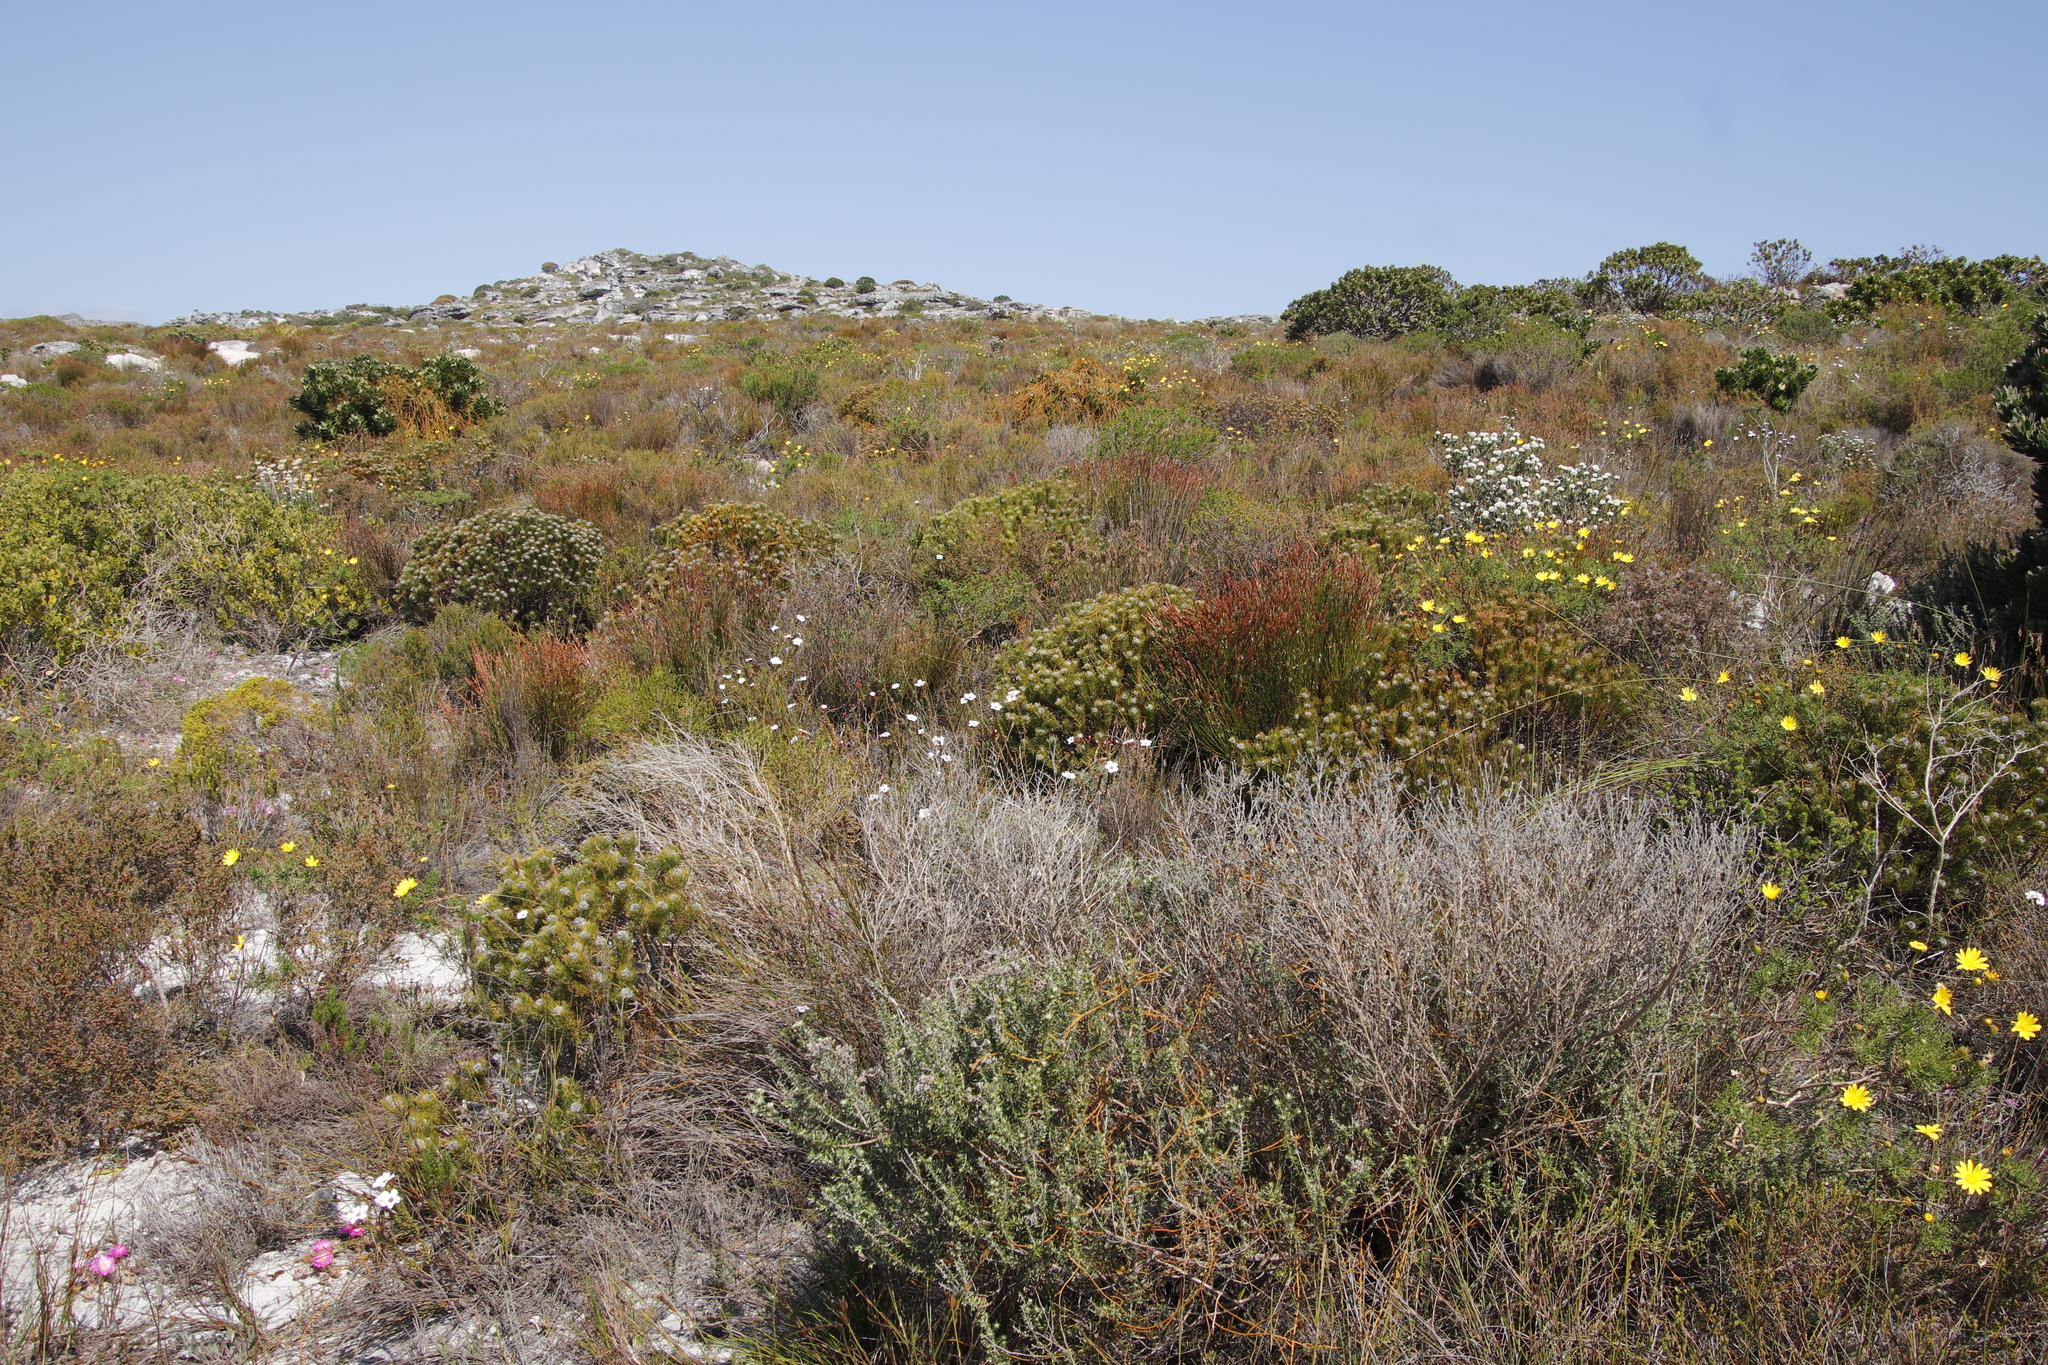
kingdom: Plantae
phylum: Tracheophyta
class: Magnoliopsida
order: Proteales
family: Proteaceae
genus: Serruria
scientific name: Serruria villosa
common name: Golden spiderhead
